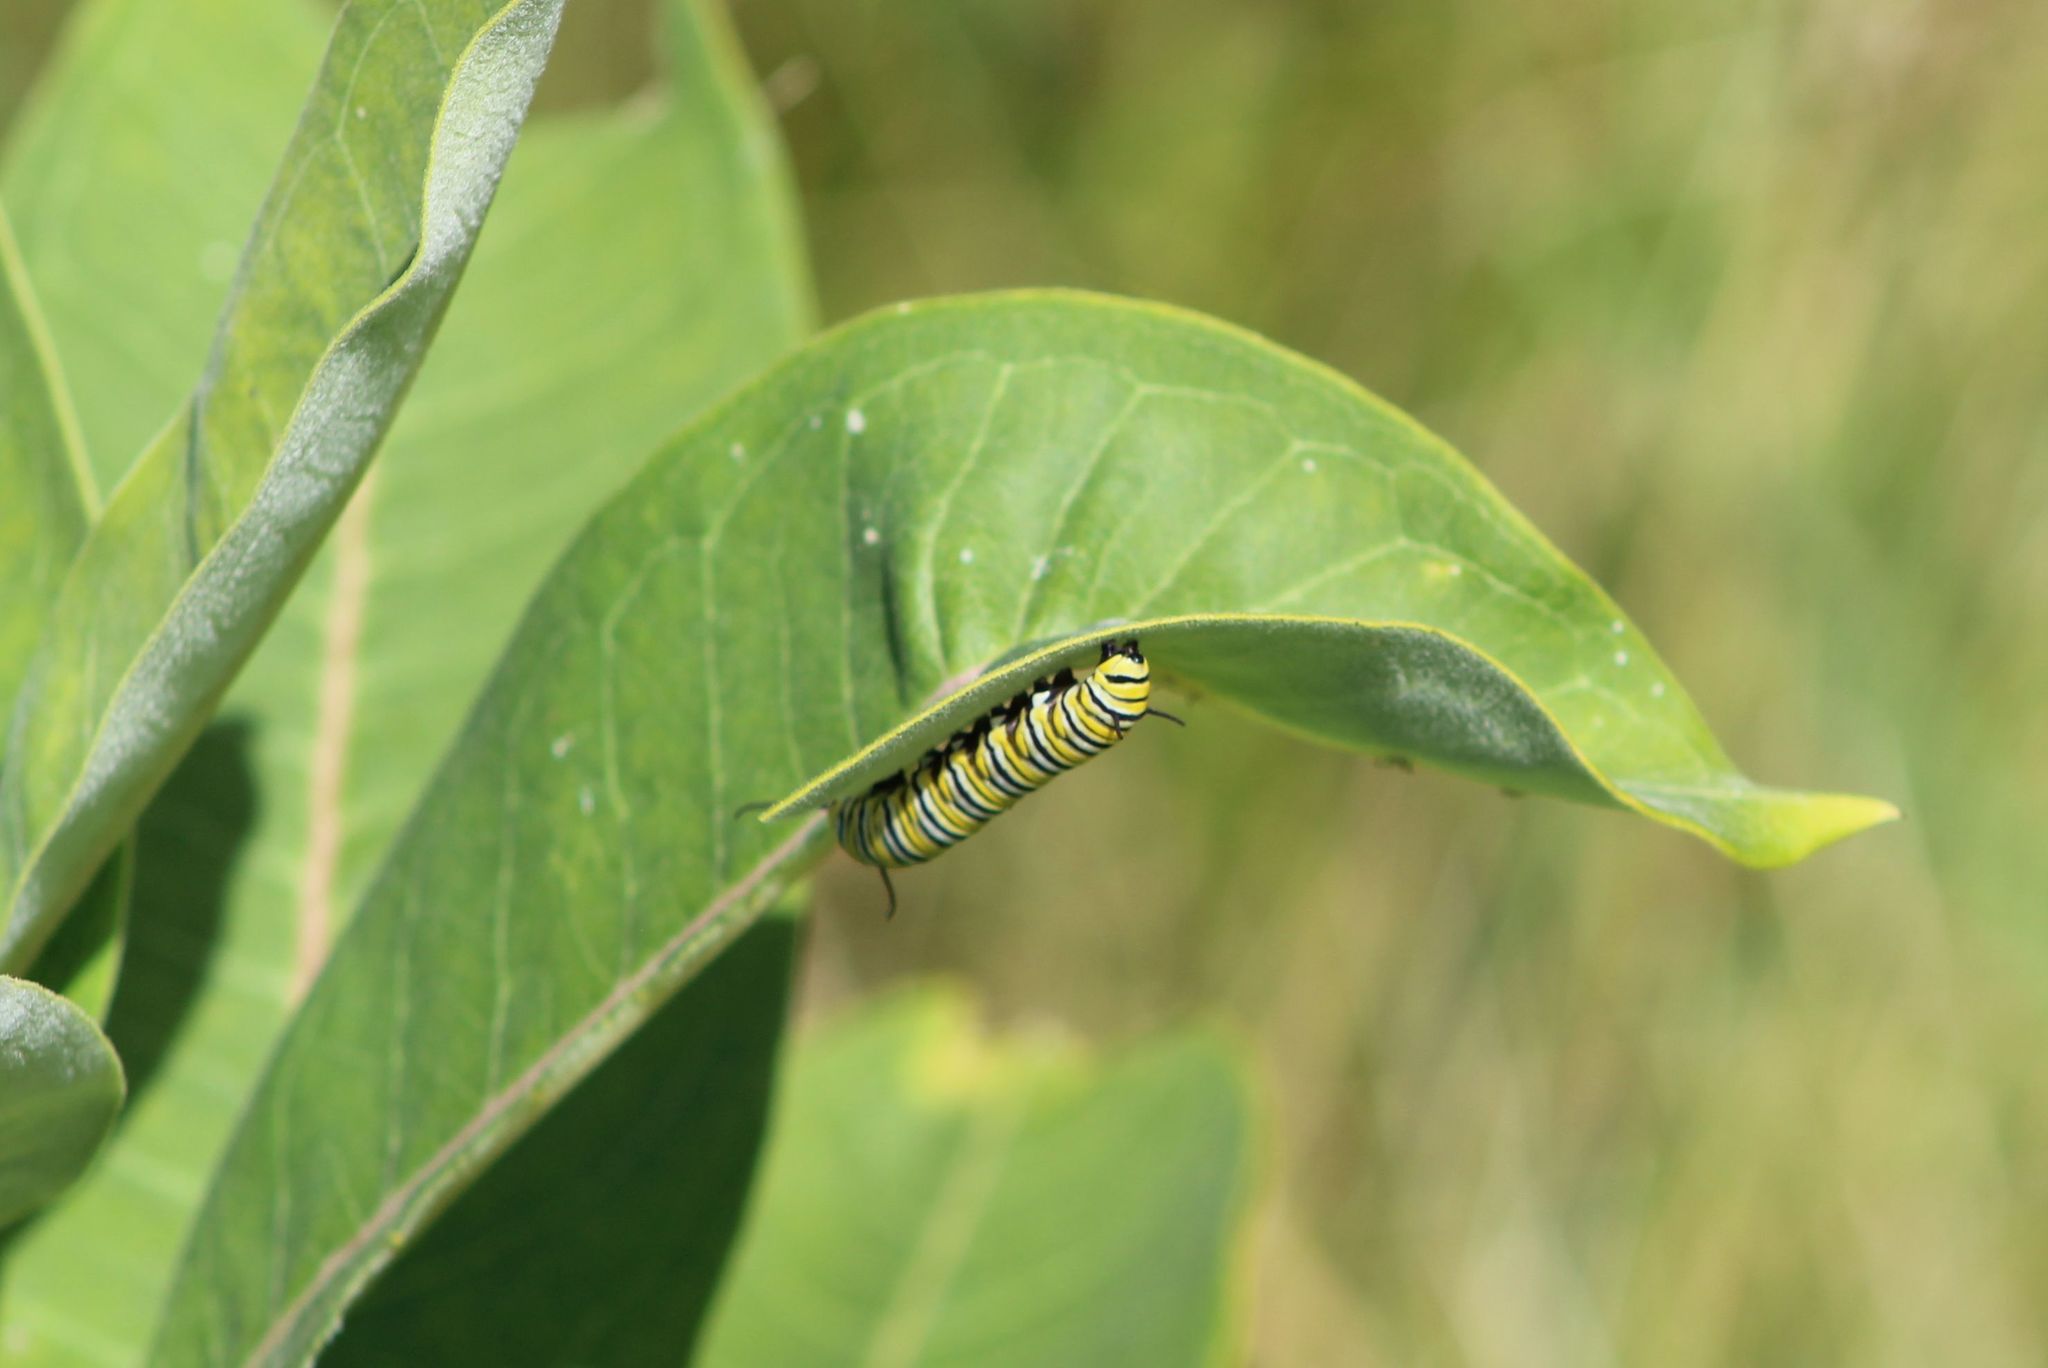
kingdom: Animalia
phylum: Arthropoda
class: Insecta
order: Lepidoptera
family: Nymphalidae
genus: Danaus
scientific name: Danaus plexippus
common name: Monarch
